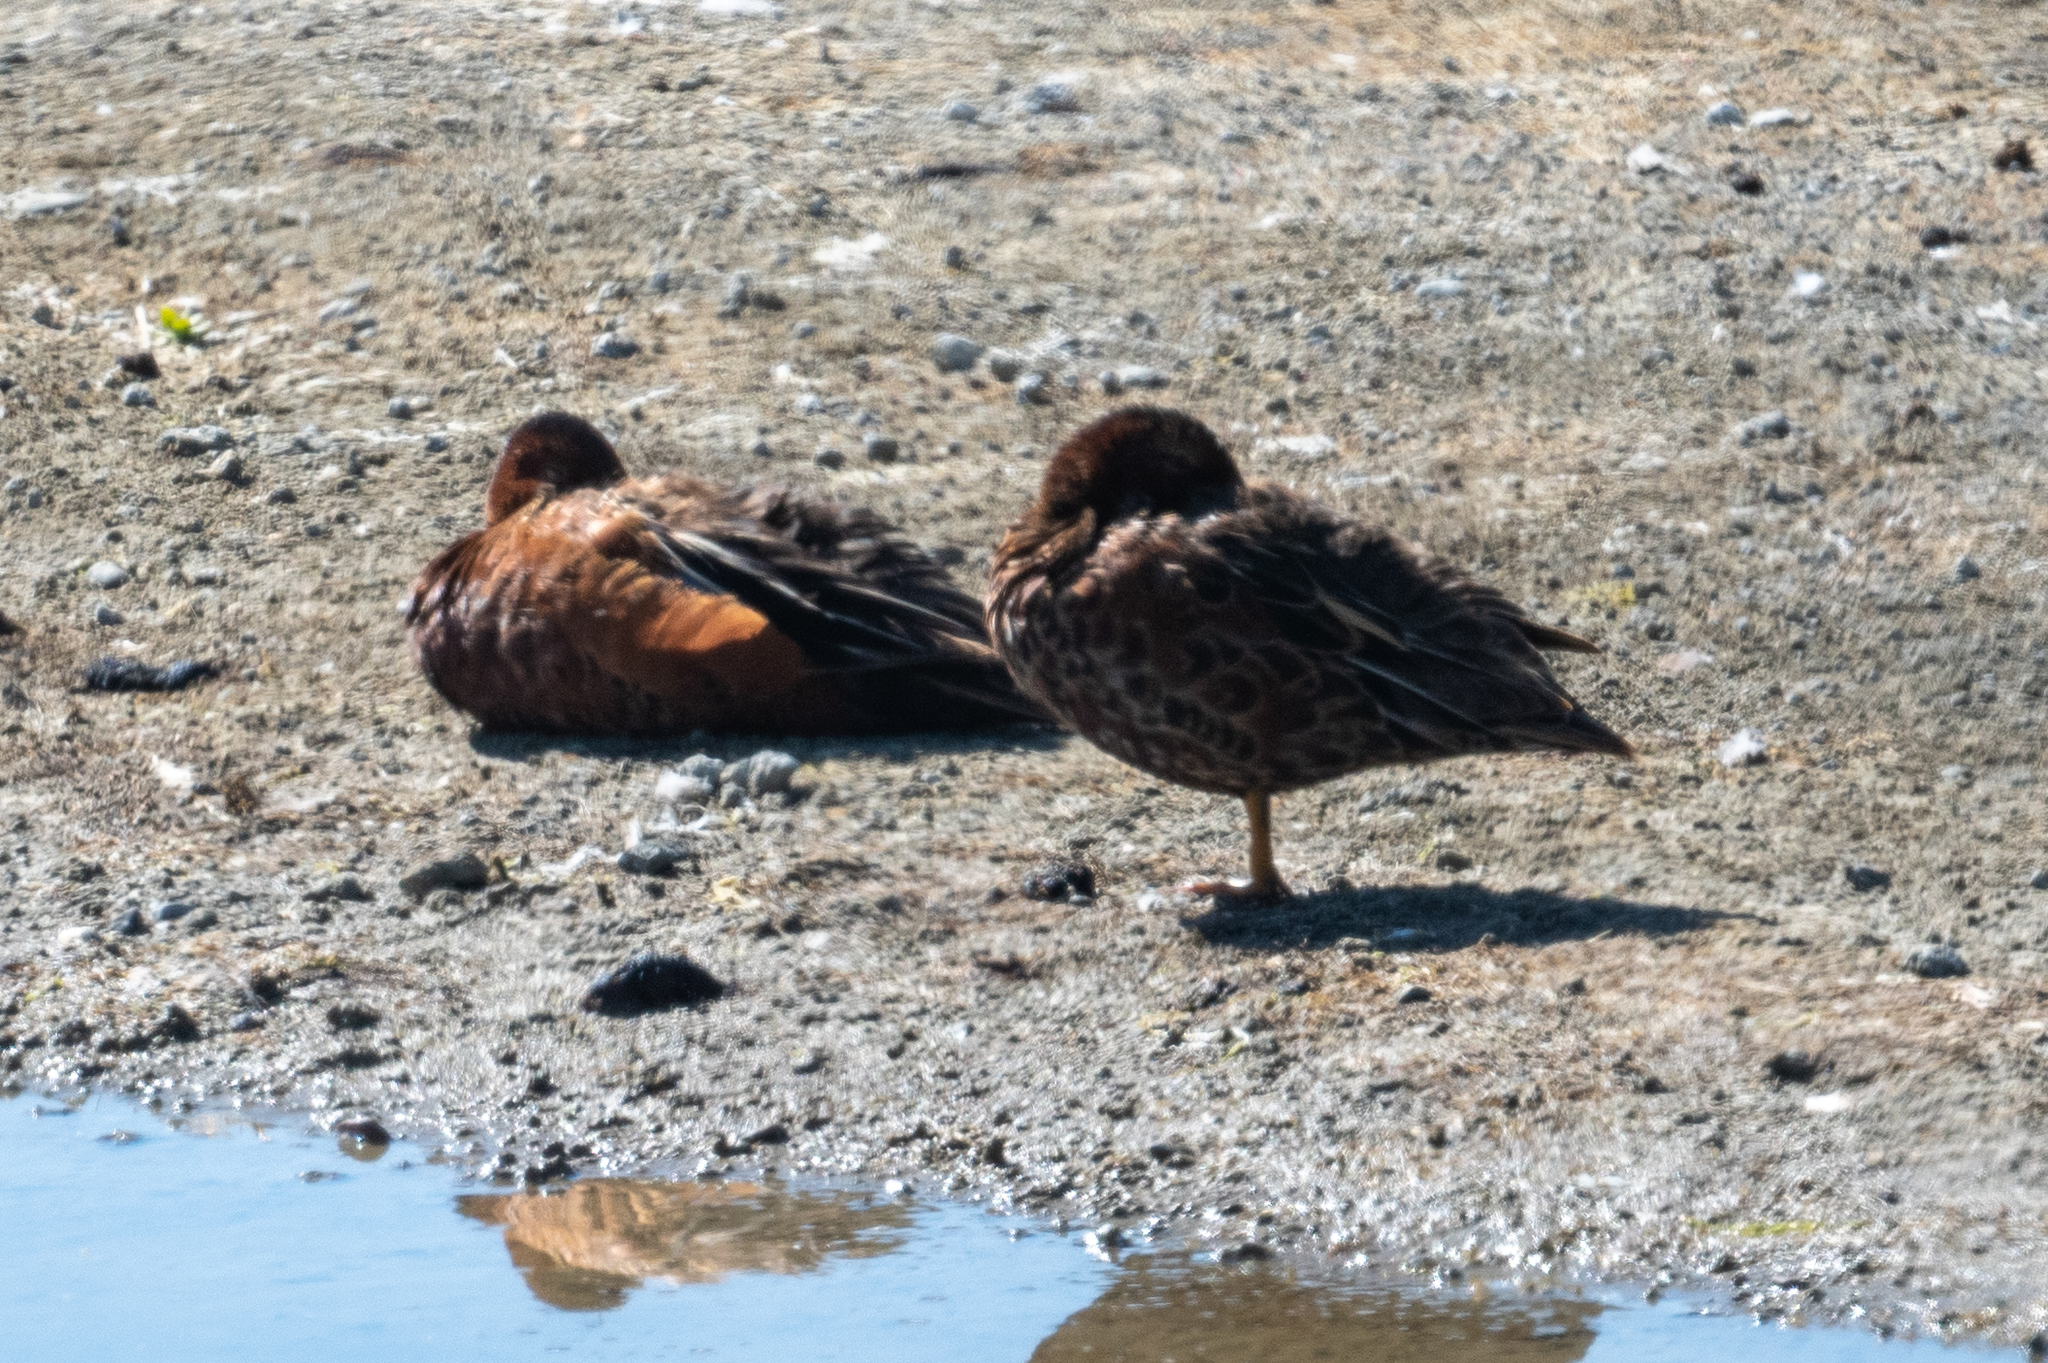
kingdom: Animalia
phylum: Chordata
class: Aves
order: Anseriformes
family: Anatidae
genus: Spatula
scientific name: Spatula cyanoptera
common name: Cinnamon teal
